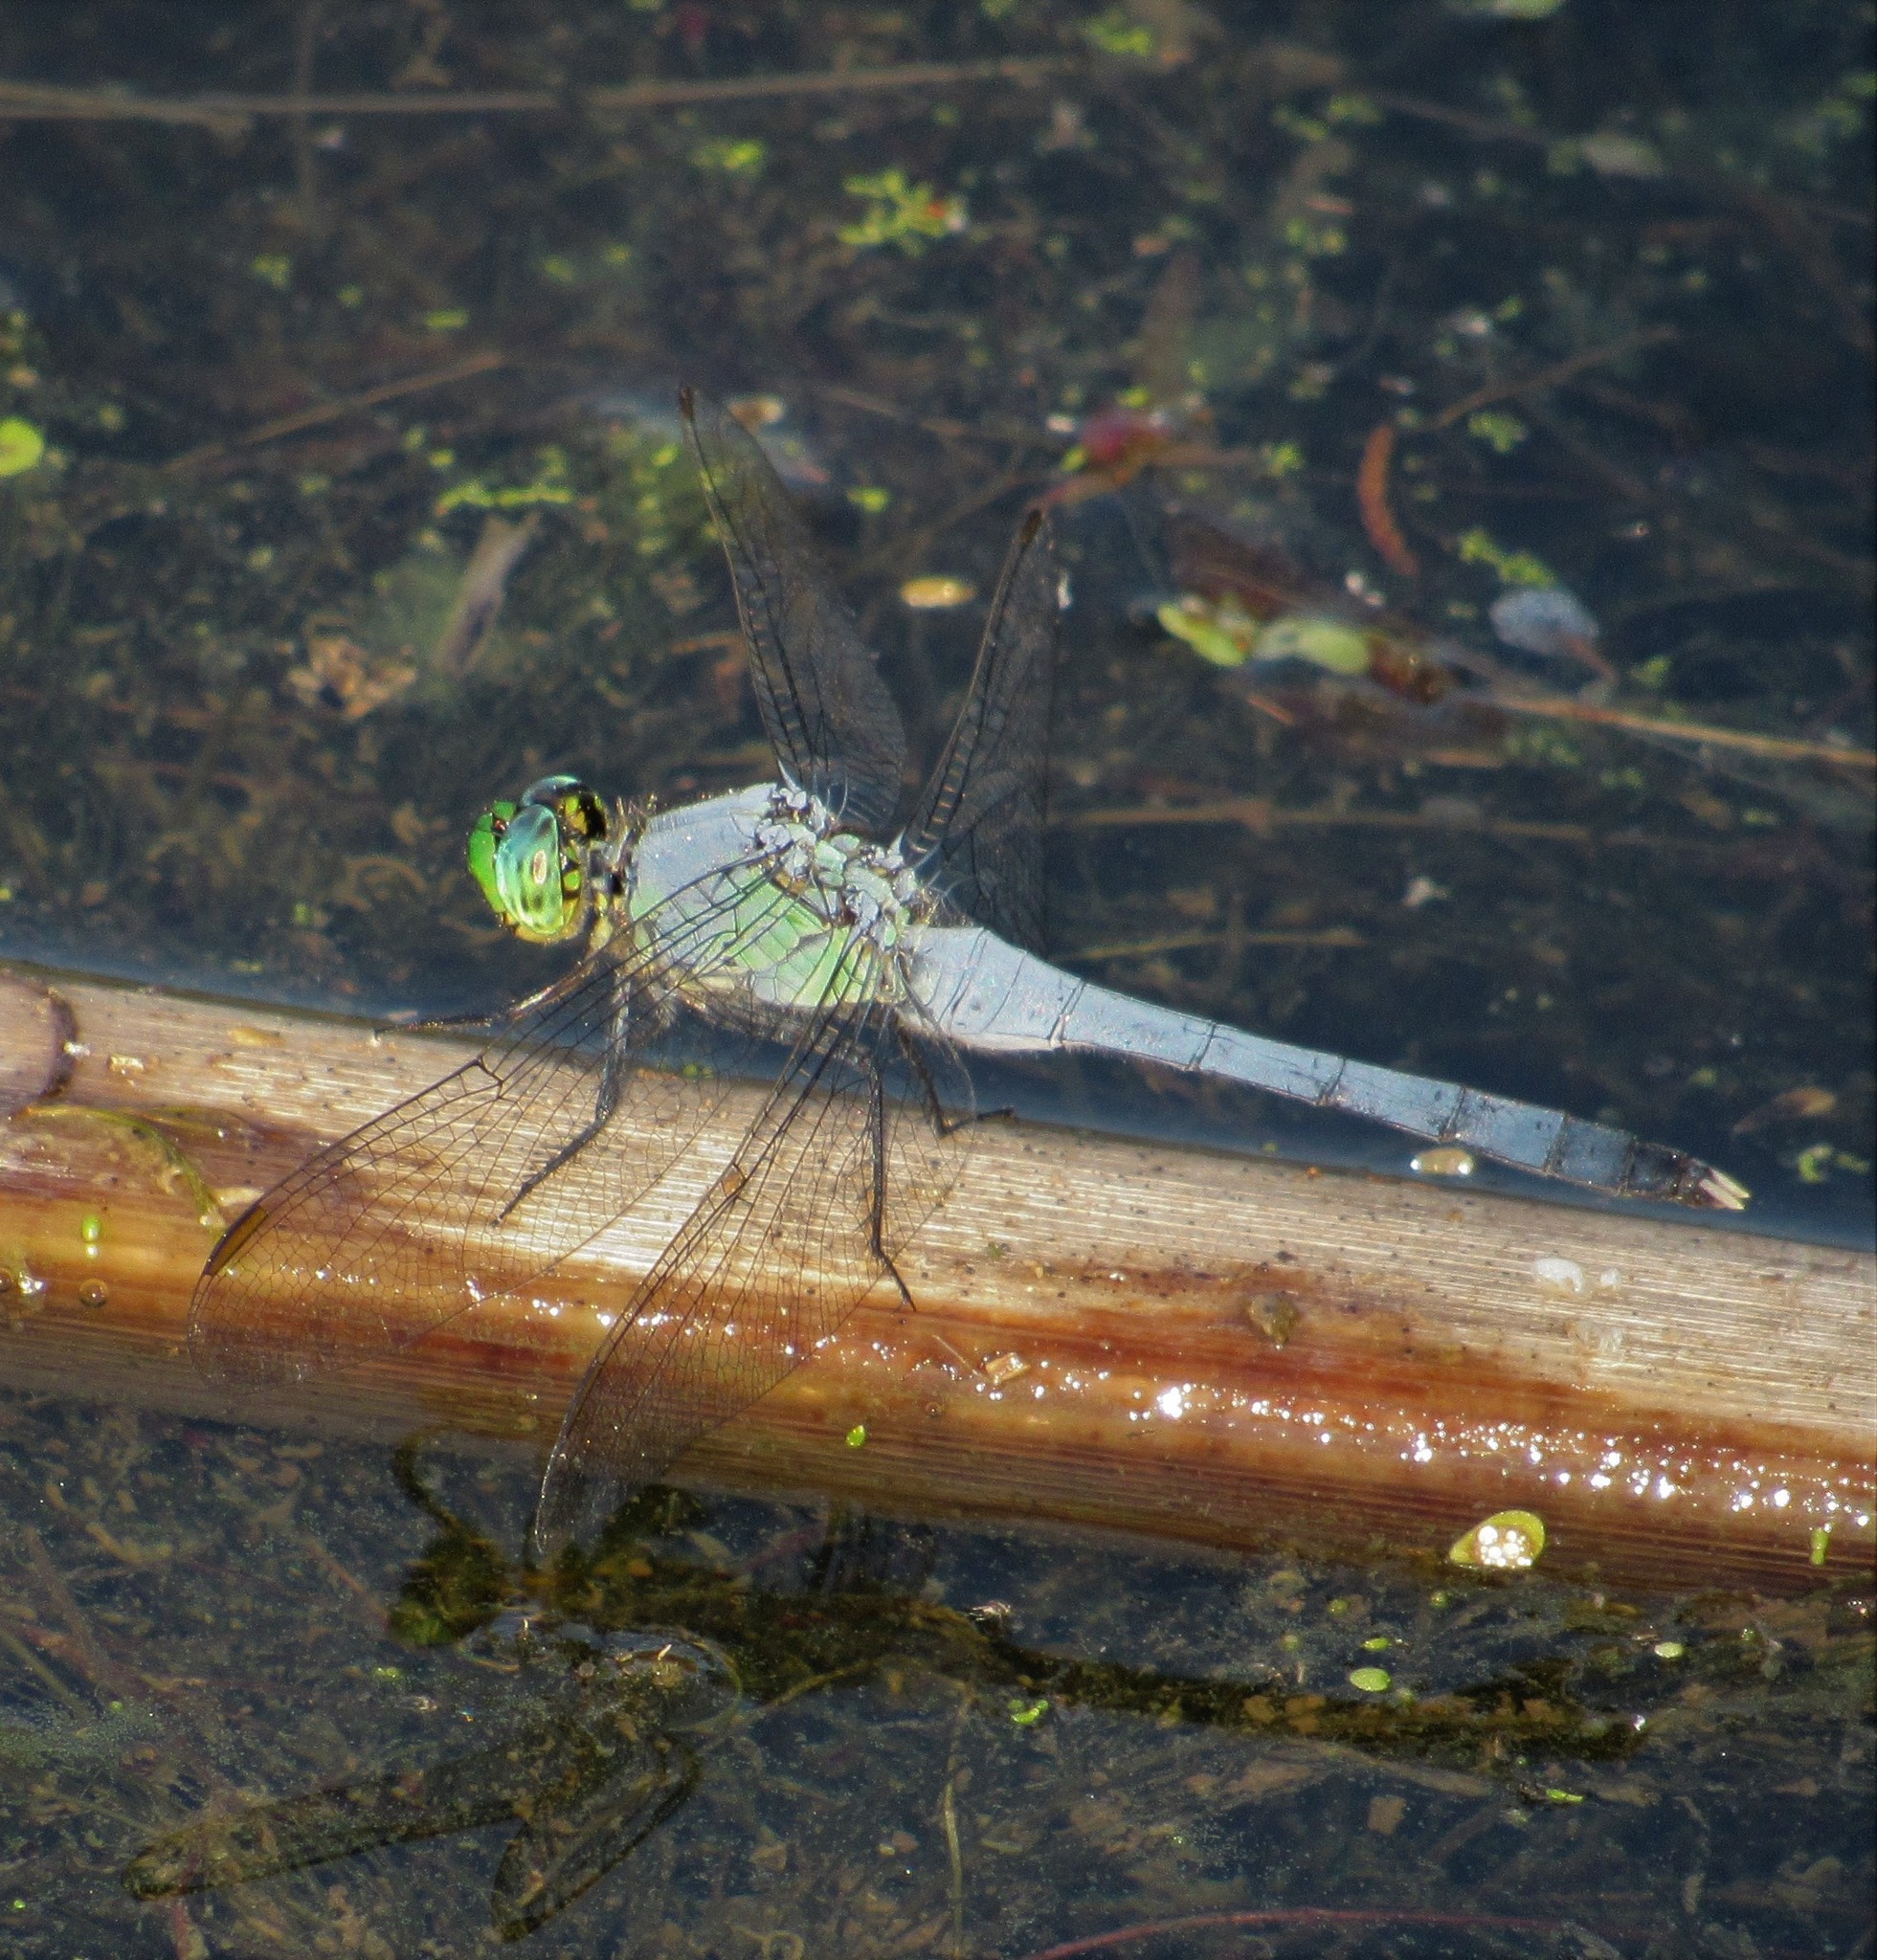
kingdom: Animalia
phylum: Arthropoda
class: Insecta
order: Odonata
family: Libellulidae
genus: Erythemis
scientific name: Erythemis simplicicollis
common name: Eastern pondhawk
